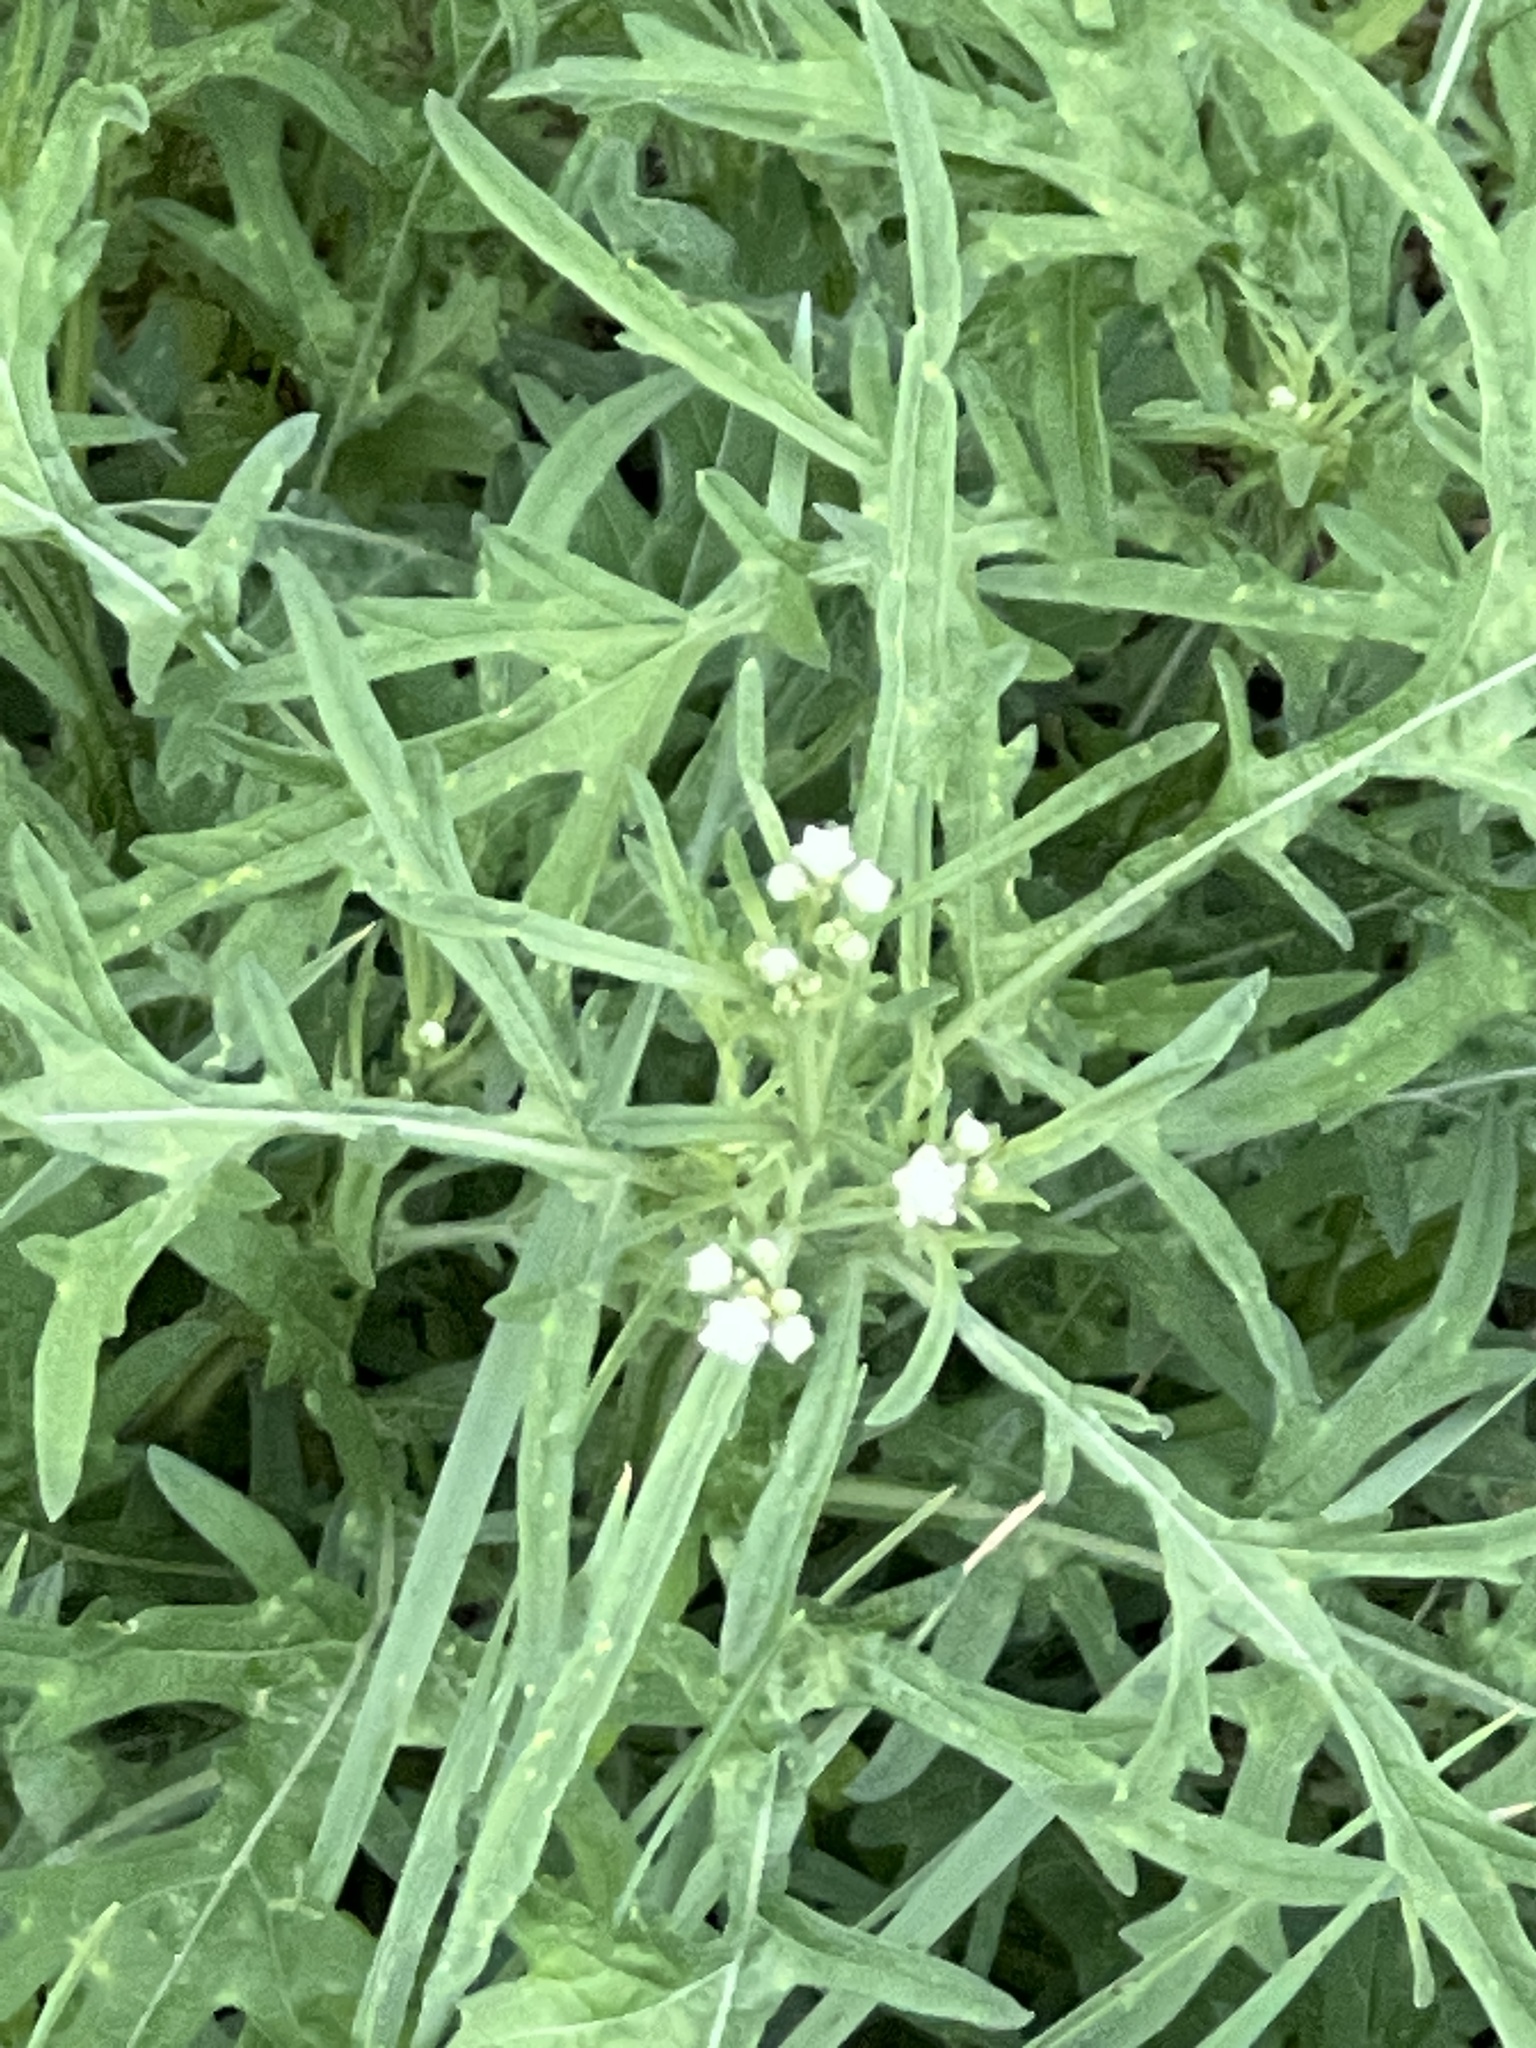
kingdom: Plantae
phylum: Tracheophyta
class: Magnoliopsida
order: Asterales
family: Asteraceae
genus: Parthenium
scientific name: Parthenium hysterophorus
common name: Santa maria feverfew
